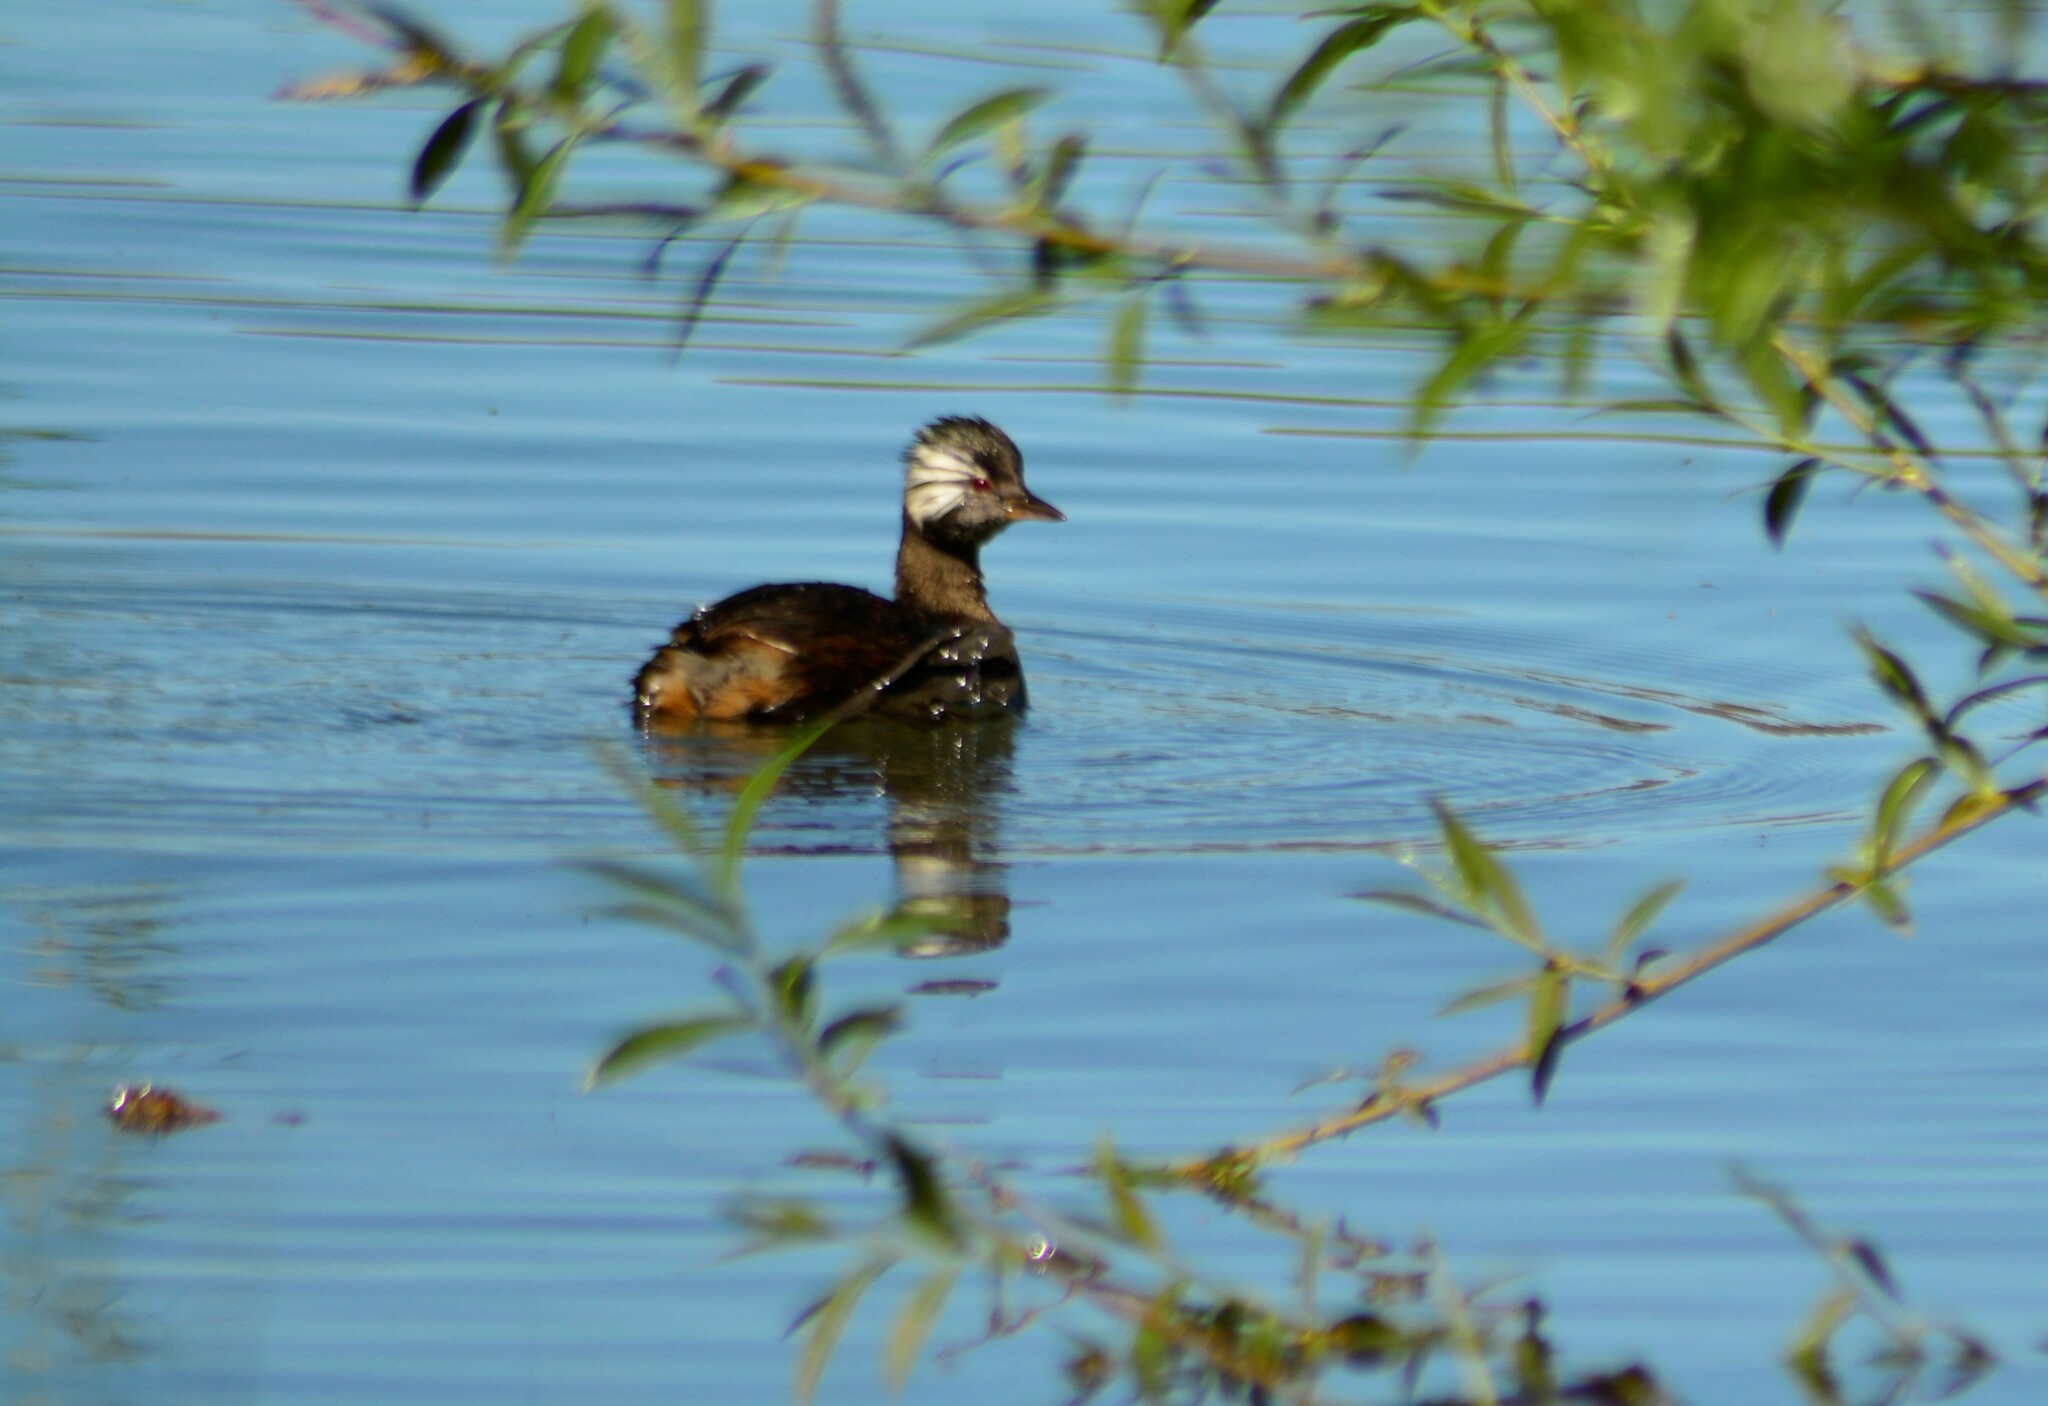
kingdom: Animalia
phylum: Chordata
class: Aves
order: Podicipediformes
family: Podicipedidae
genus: Rollandia
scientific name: Rollandia rolland
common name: White-tufted grebe
